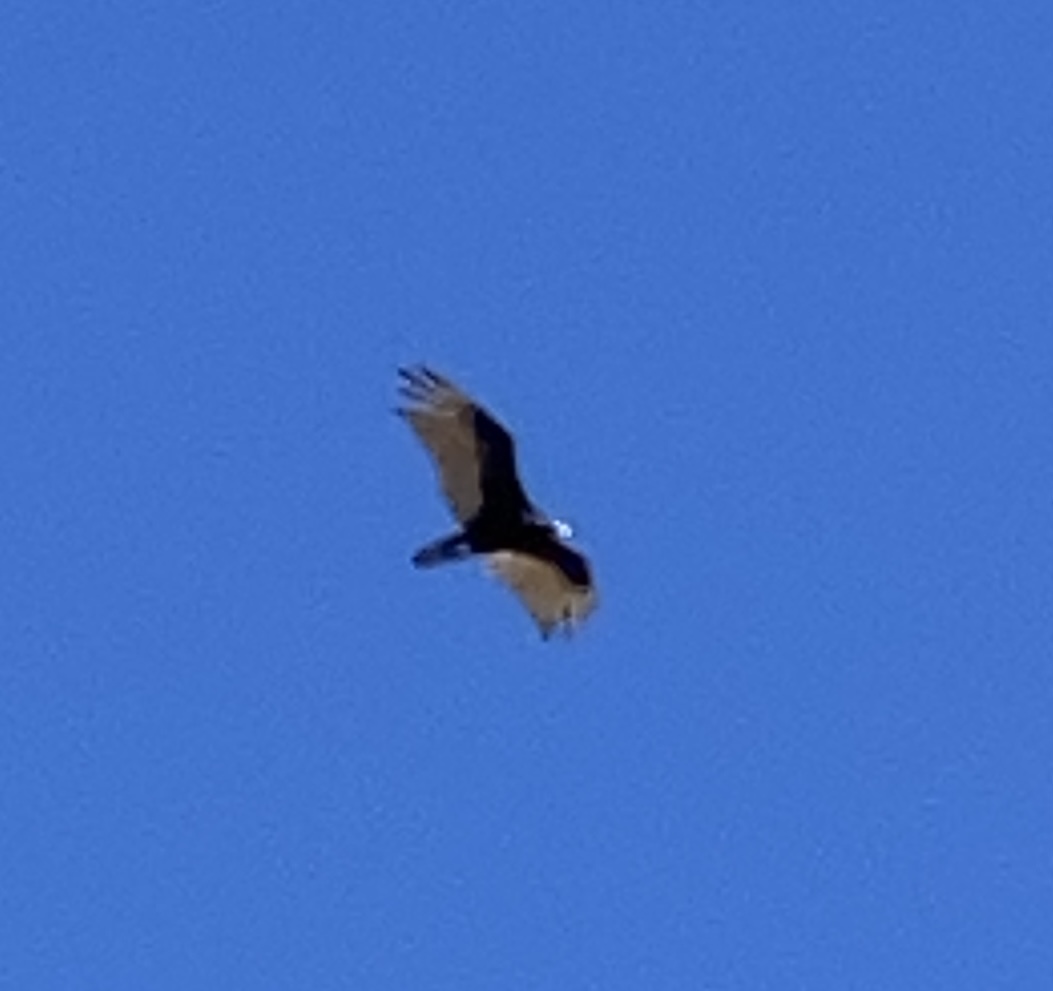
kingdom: Animalia
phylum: Chordata
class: Aves
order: Accipitriformes
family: Cathartidae
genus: Cathartes
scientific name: Cathartes aura
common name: Turkey vulture
